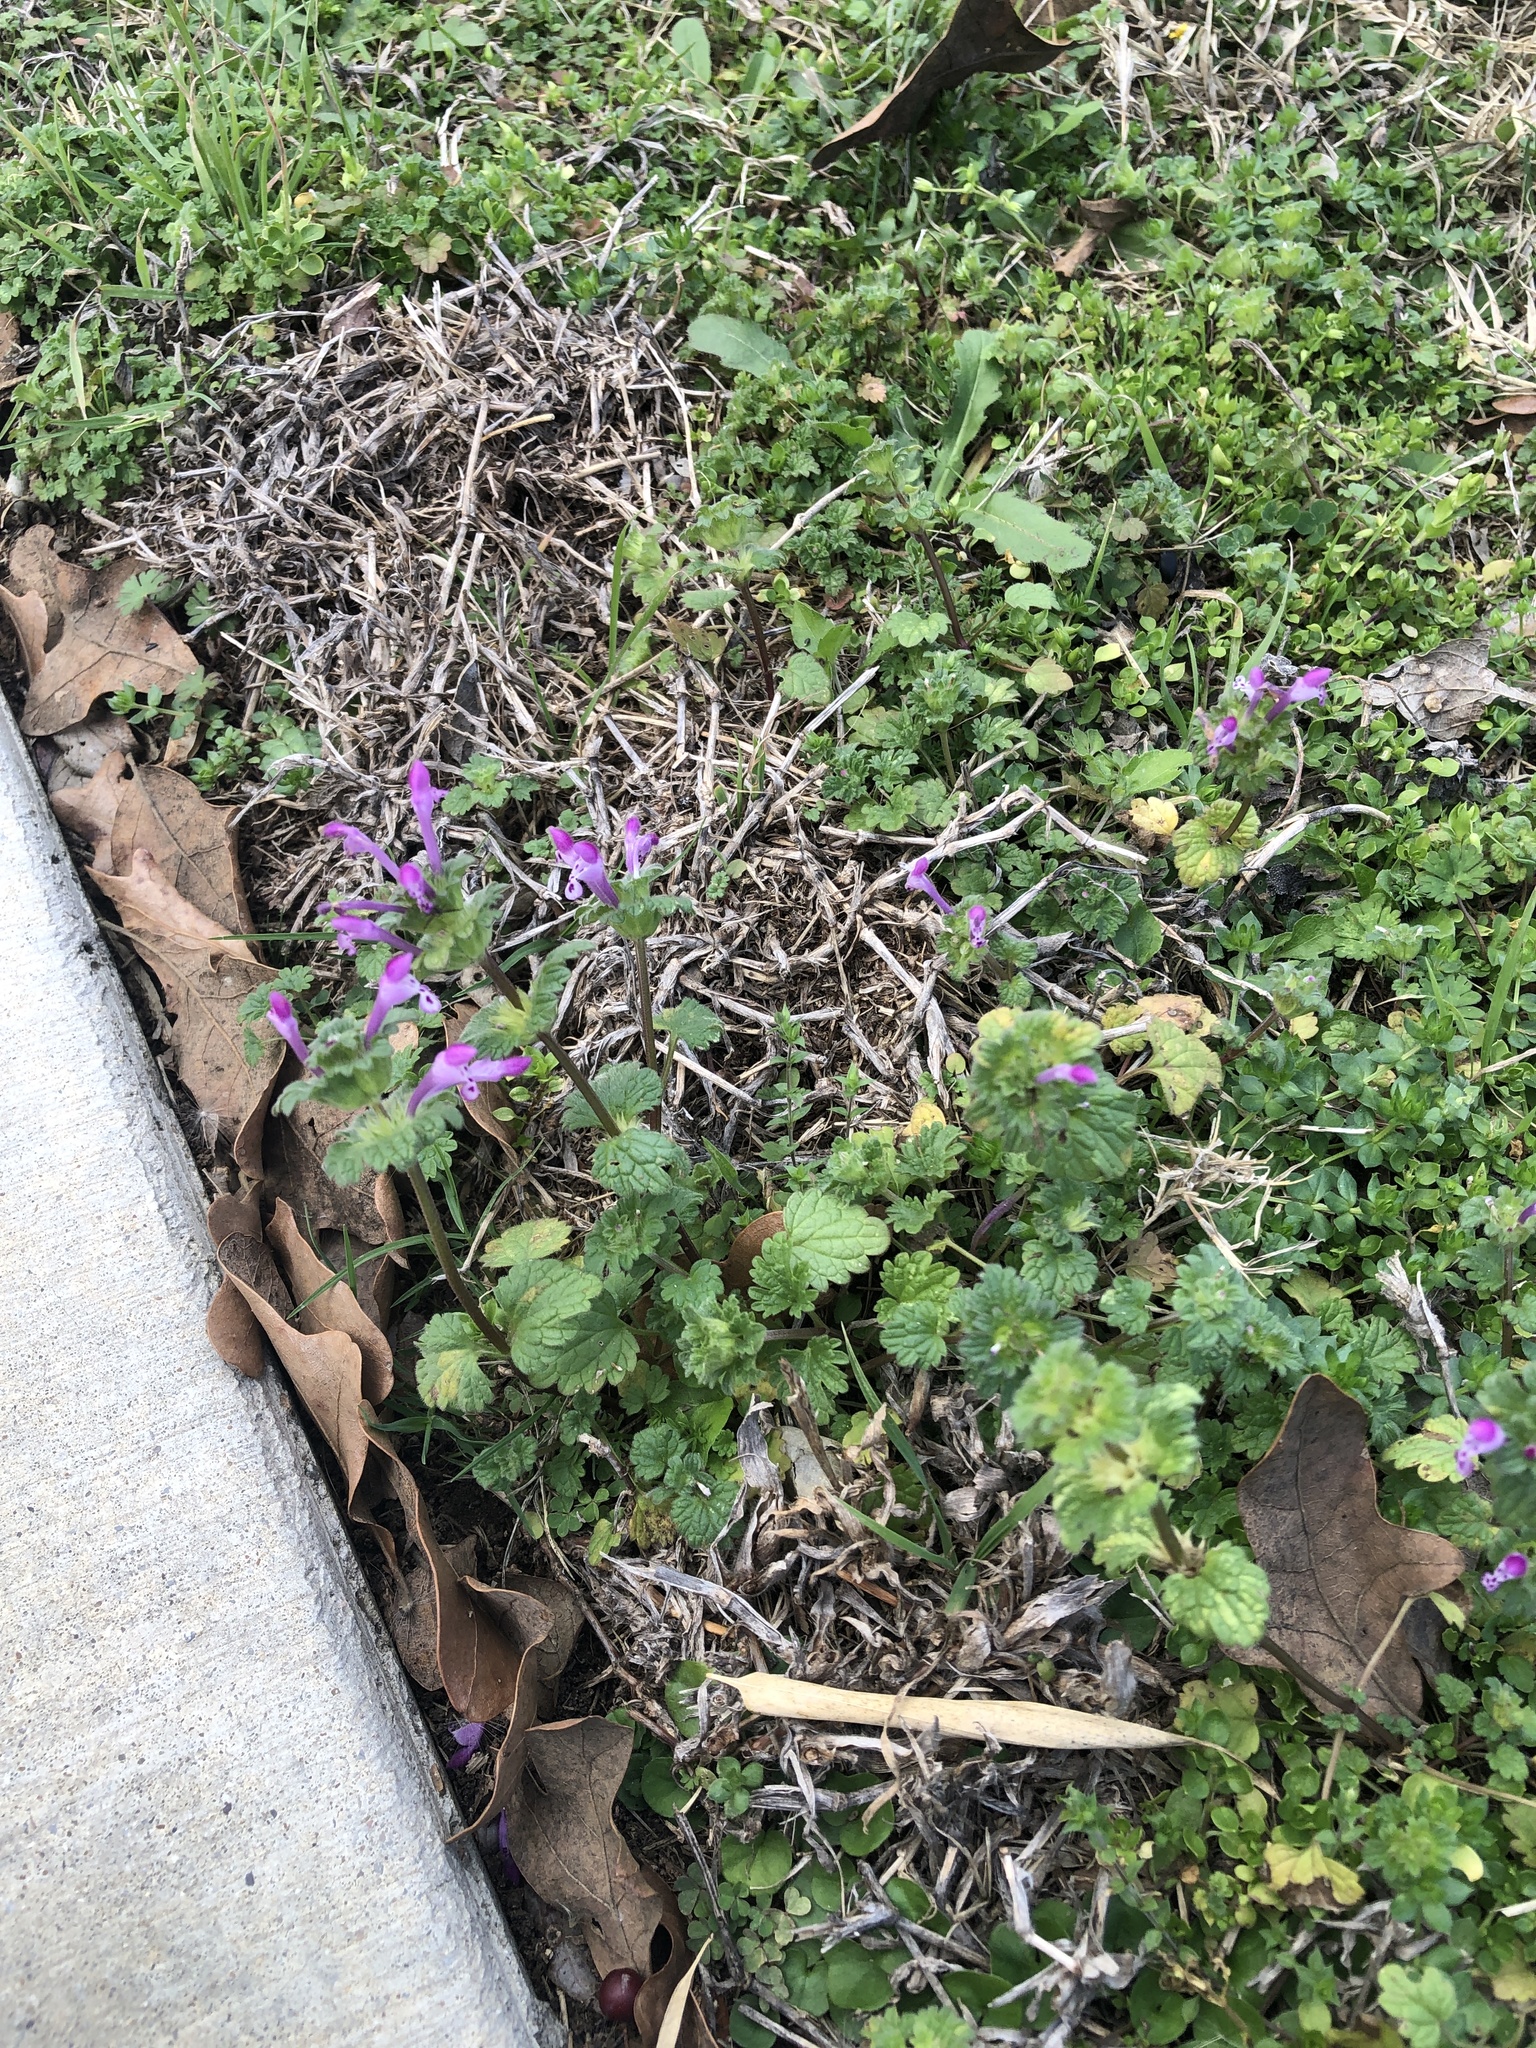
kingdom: Plantae
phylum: Tracheophyta
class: Magnoliopsida
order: Lamiales
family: Lamiaceae
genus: Lamium
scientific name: Lamium amplexicaule
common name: Henbit dead-nettle
